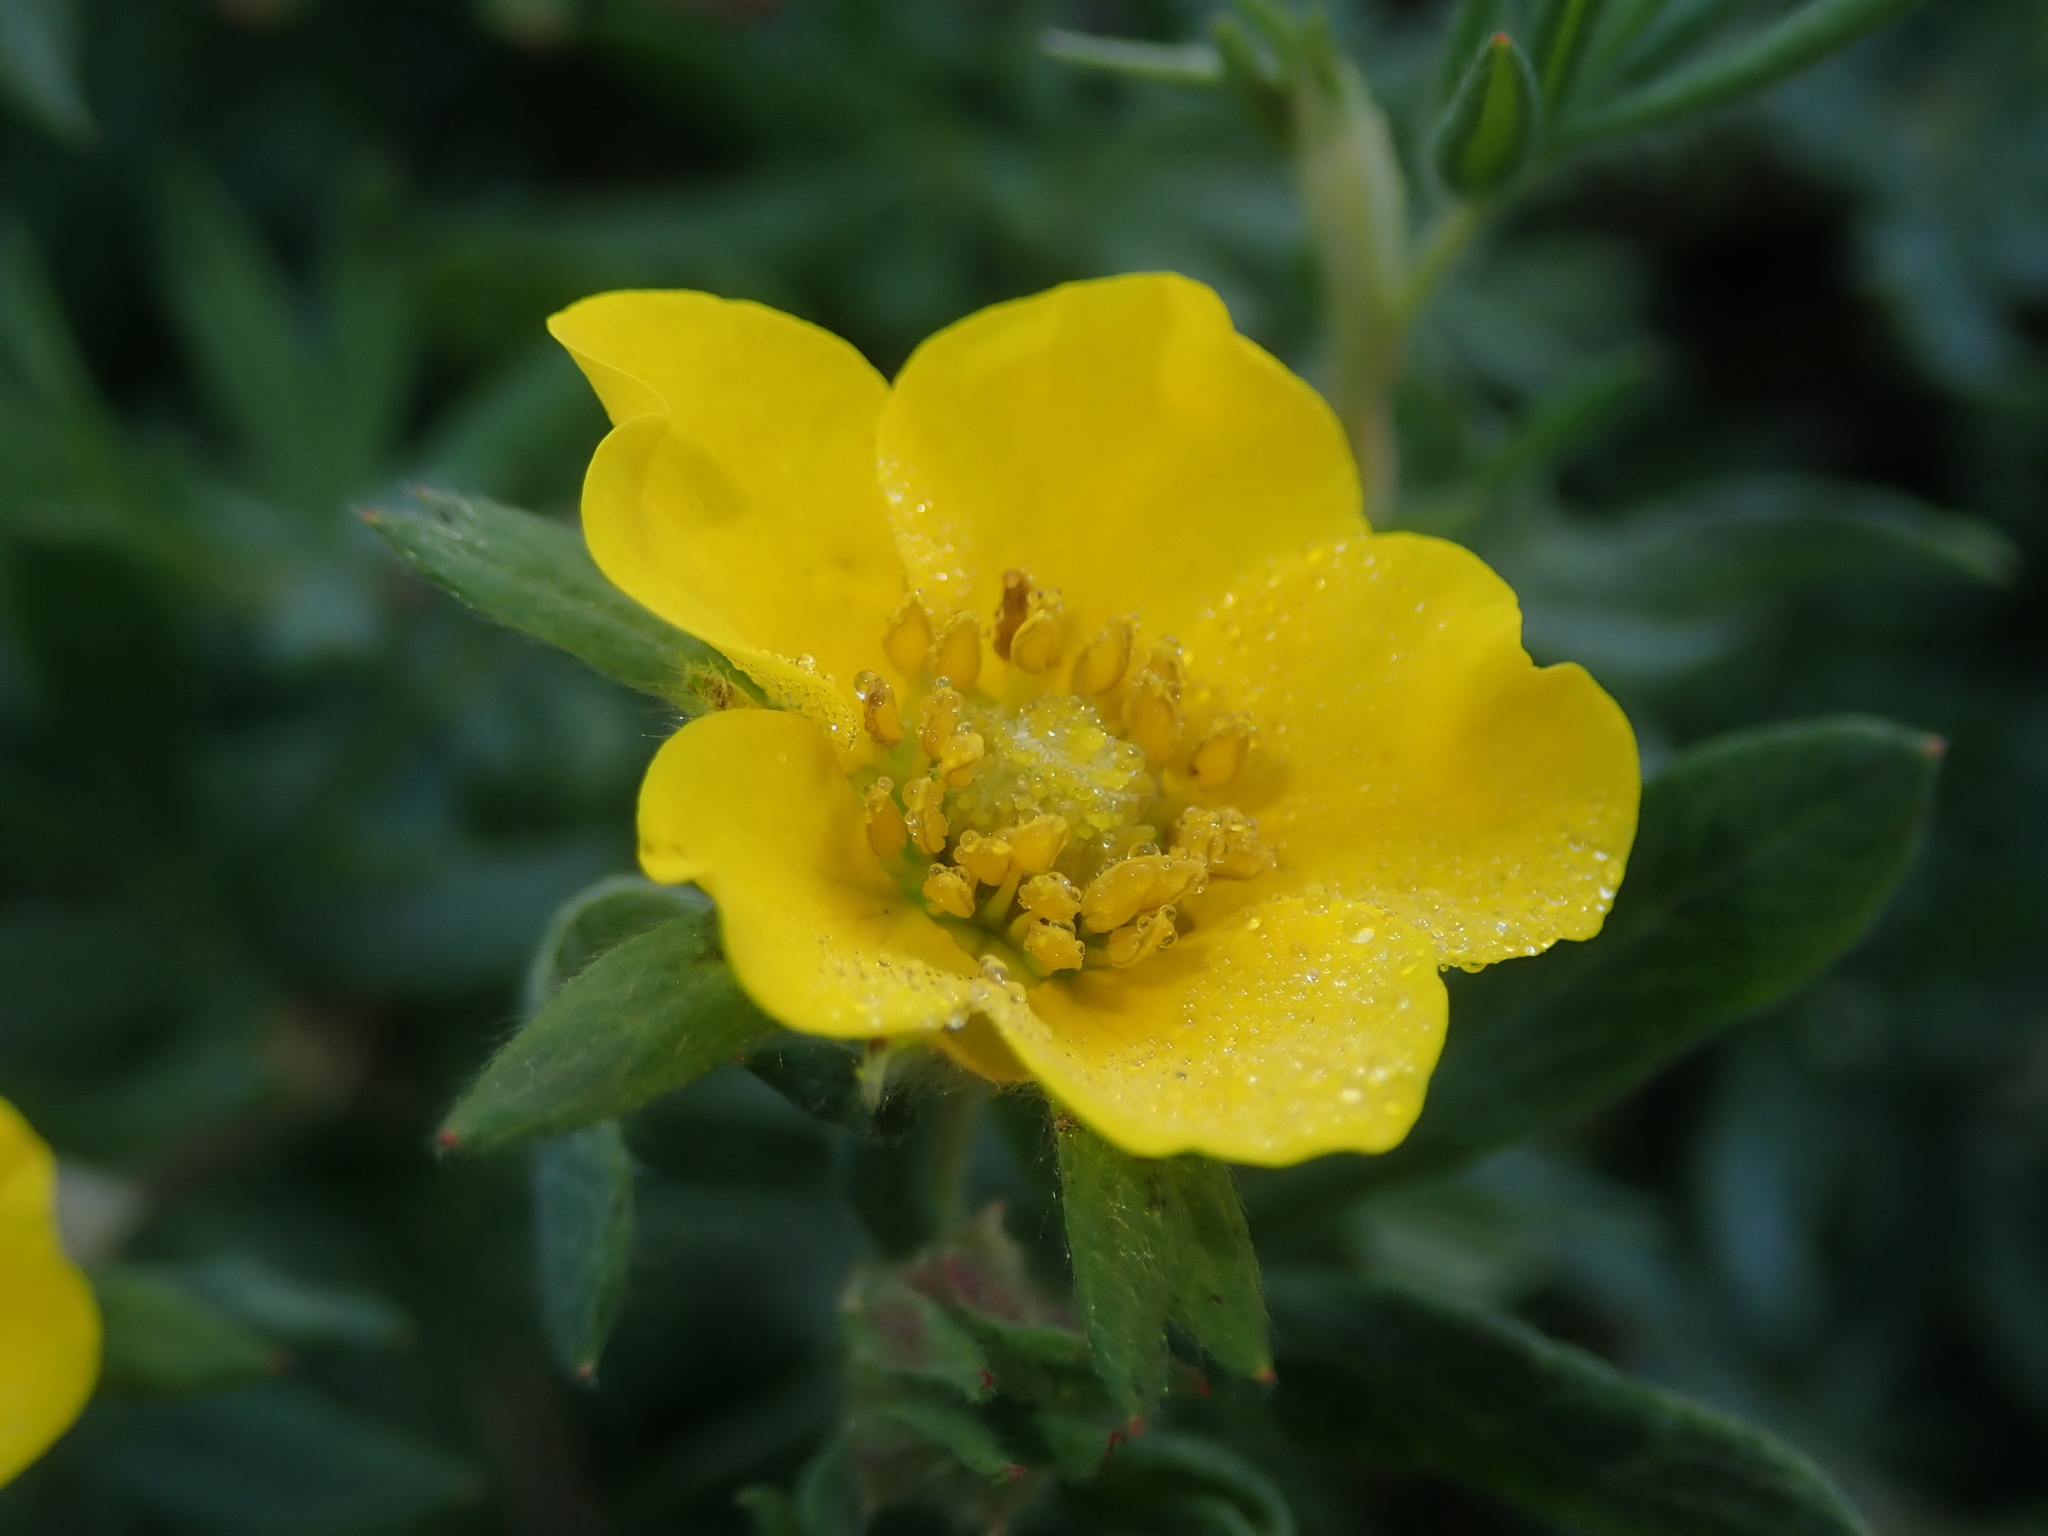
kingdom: Plantae
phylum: Tracheophyta
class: Magnoliopsida
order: Rosales
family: Rosaceae
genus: Dasiphora
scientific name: Dasiphora fruticosa
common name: Shrubby cinquefoil
